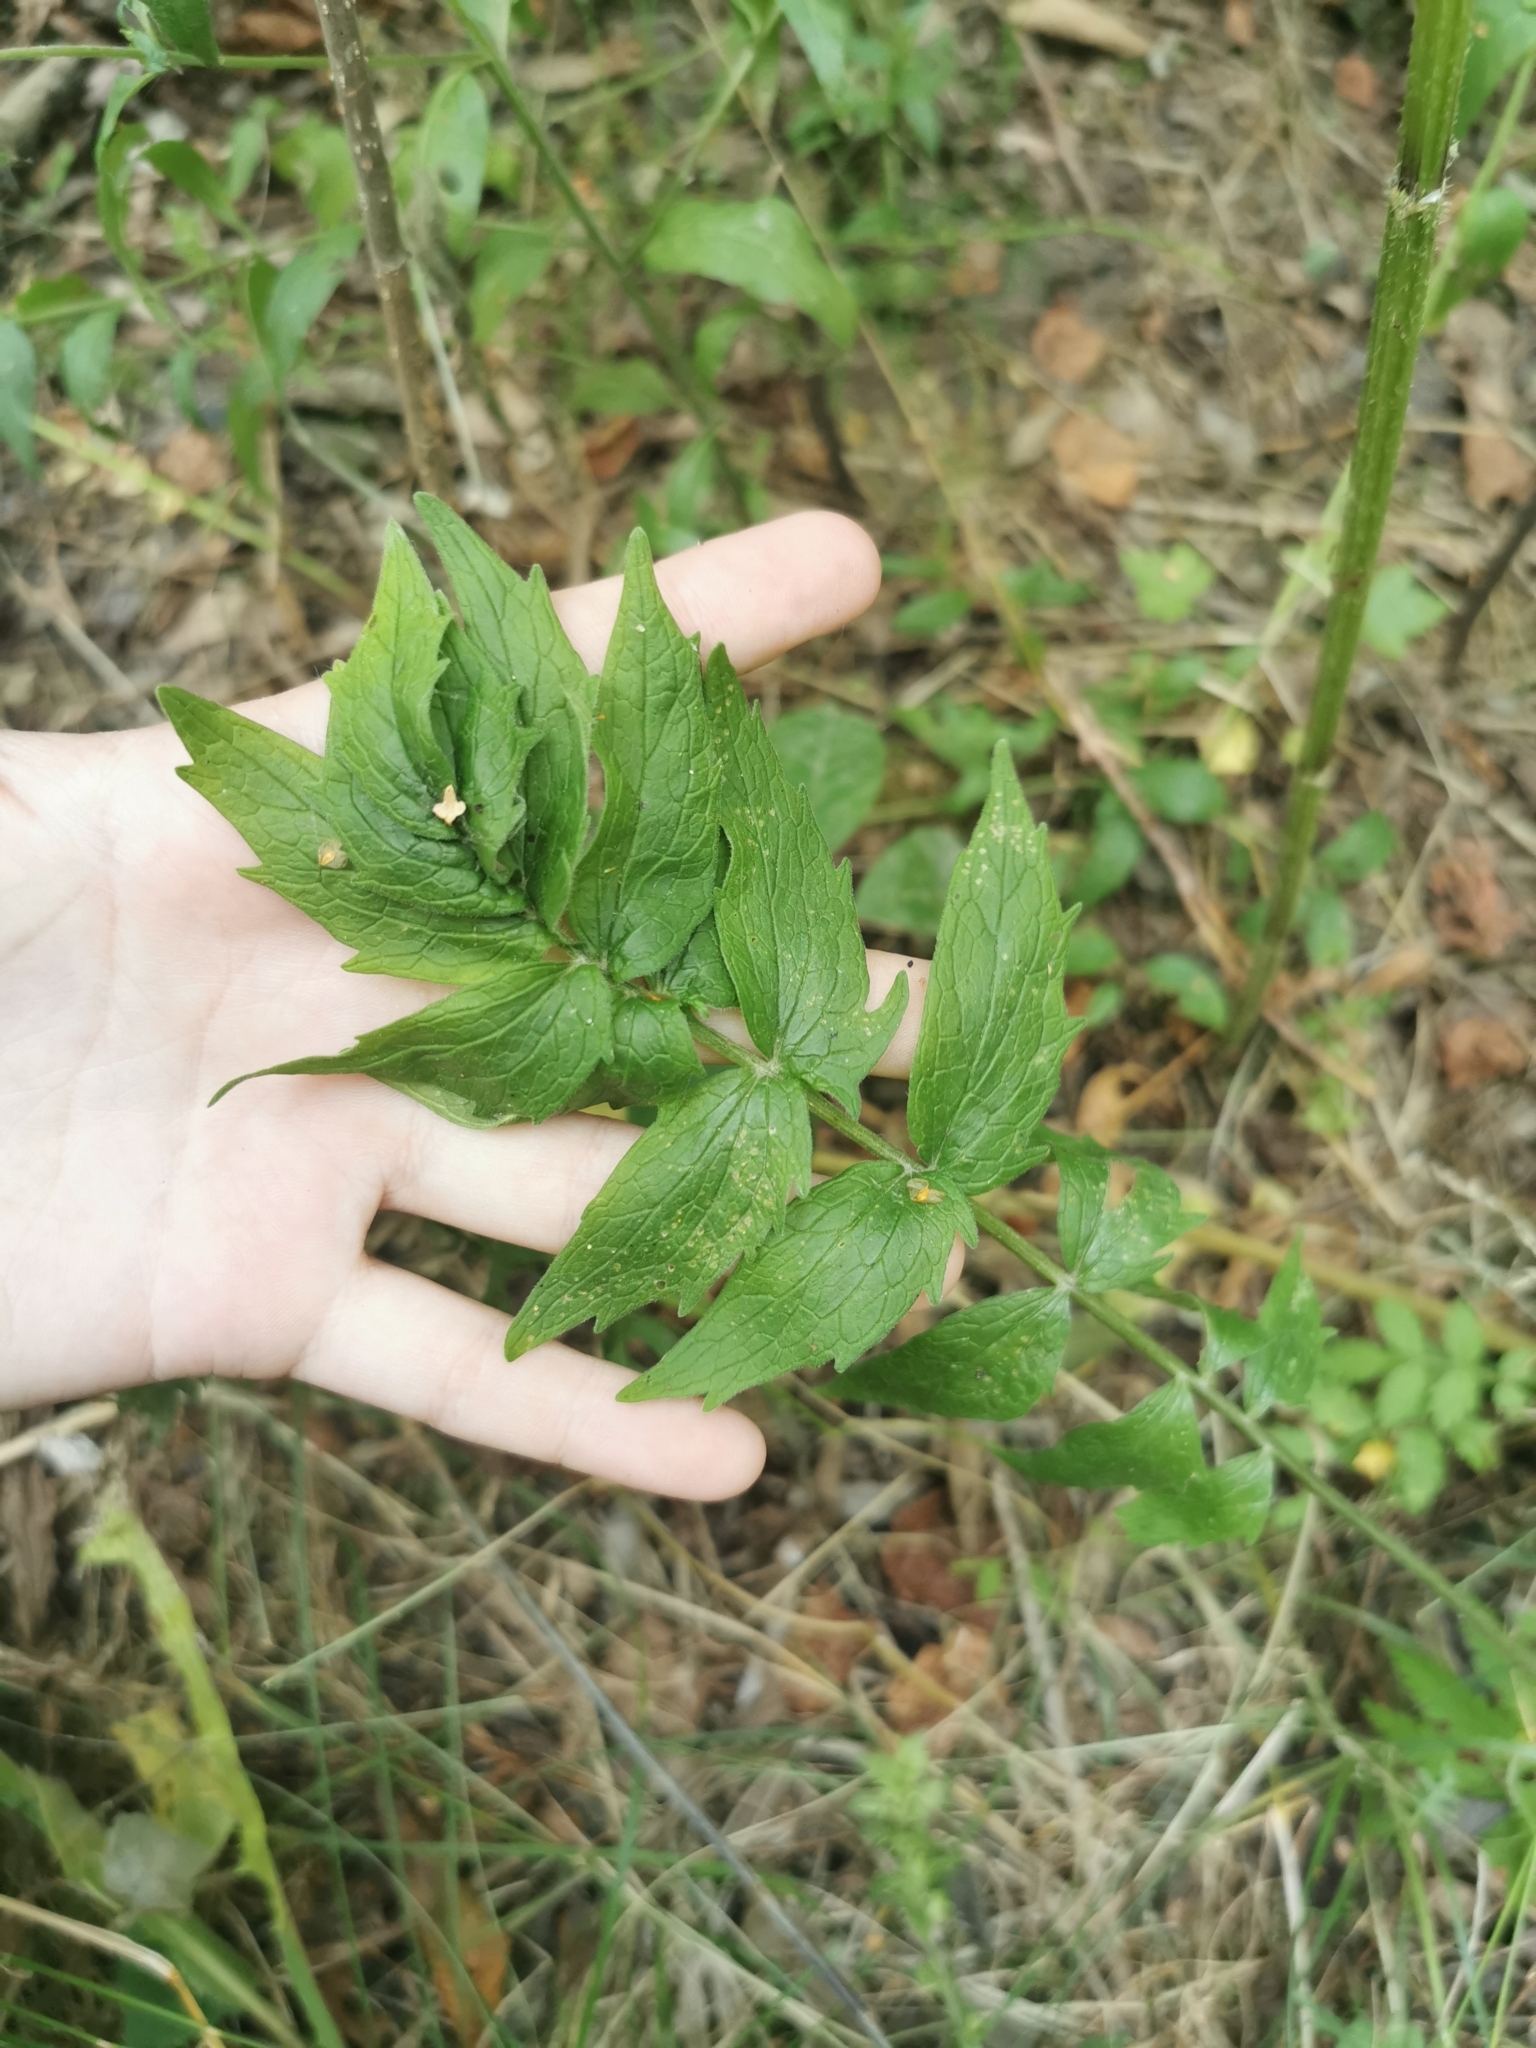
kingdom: Plantae
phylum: Tracheophyta
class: Magnoliopsida
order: Dipsacales
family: Caprifoliaceae
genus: Valeriana
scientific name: Valeriana officinalis
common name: Common valerian
